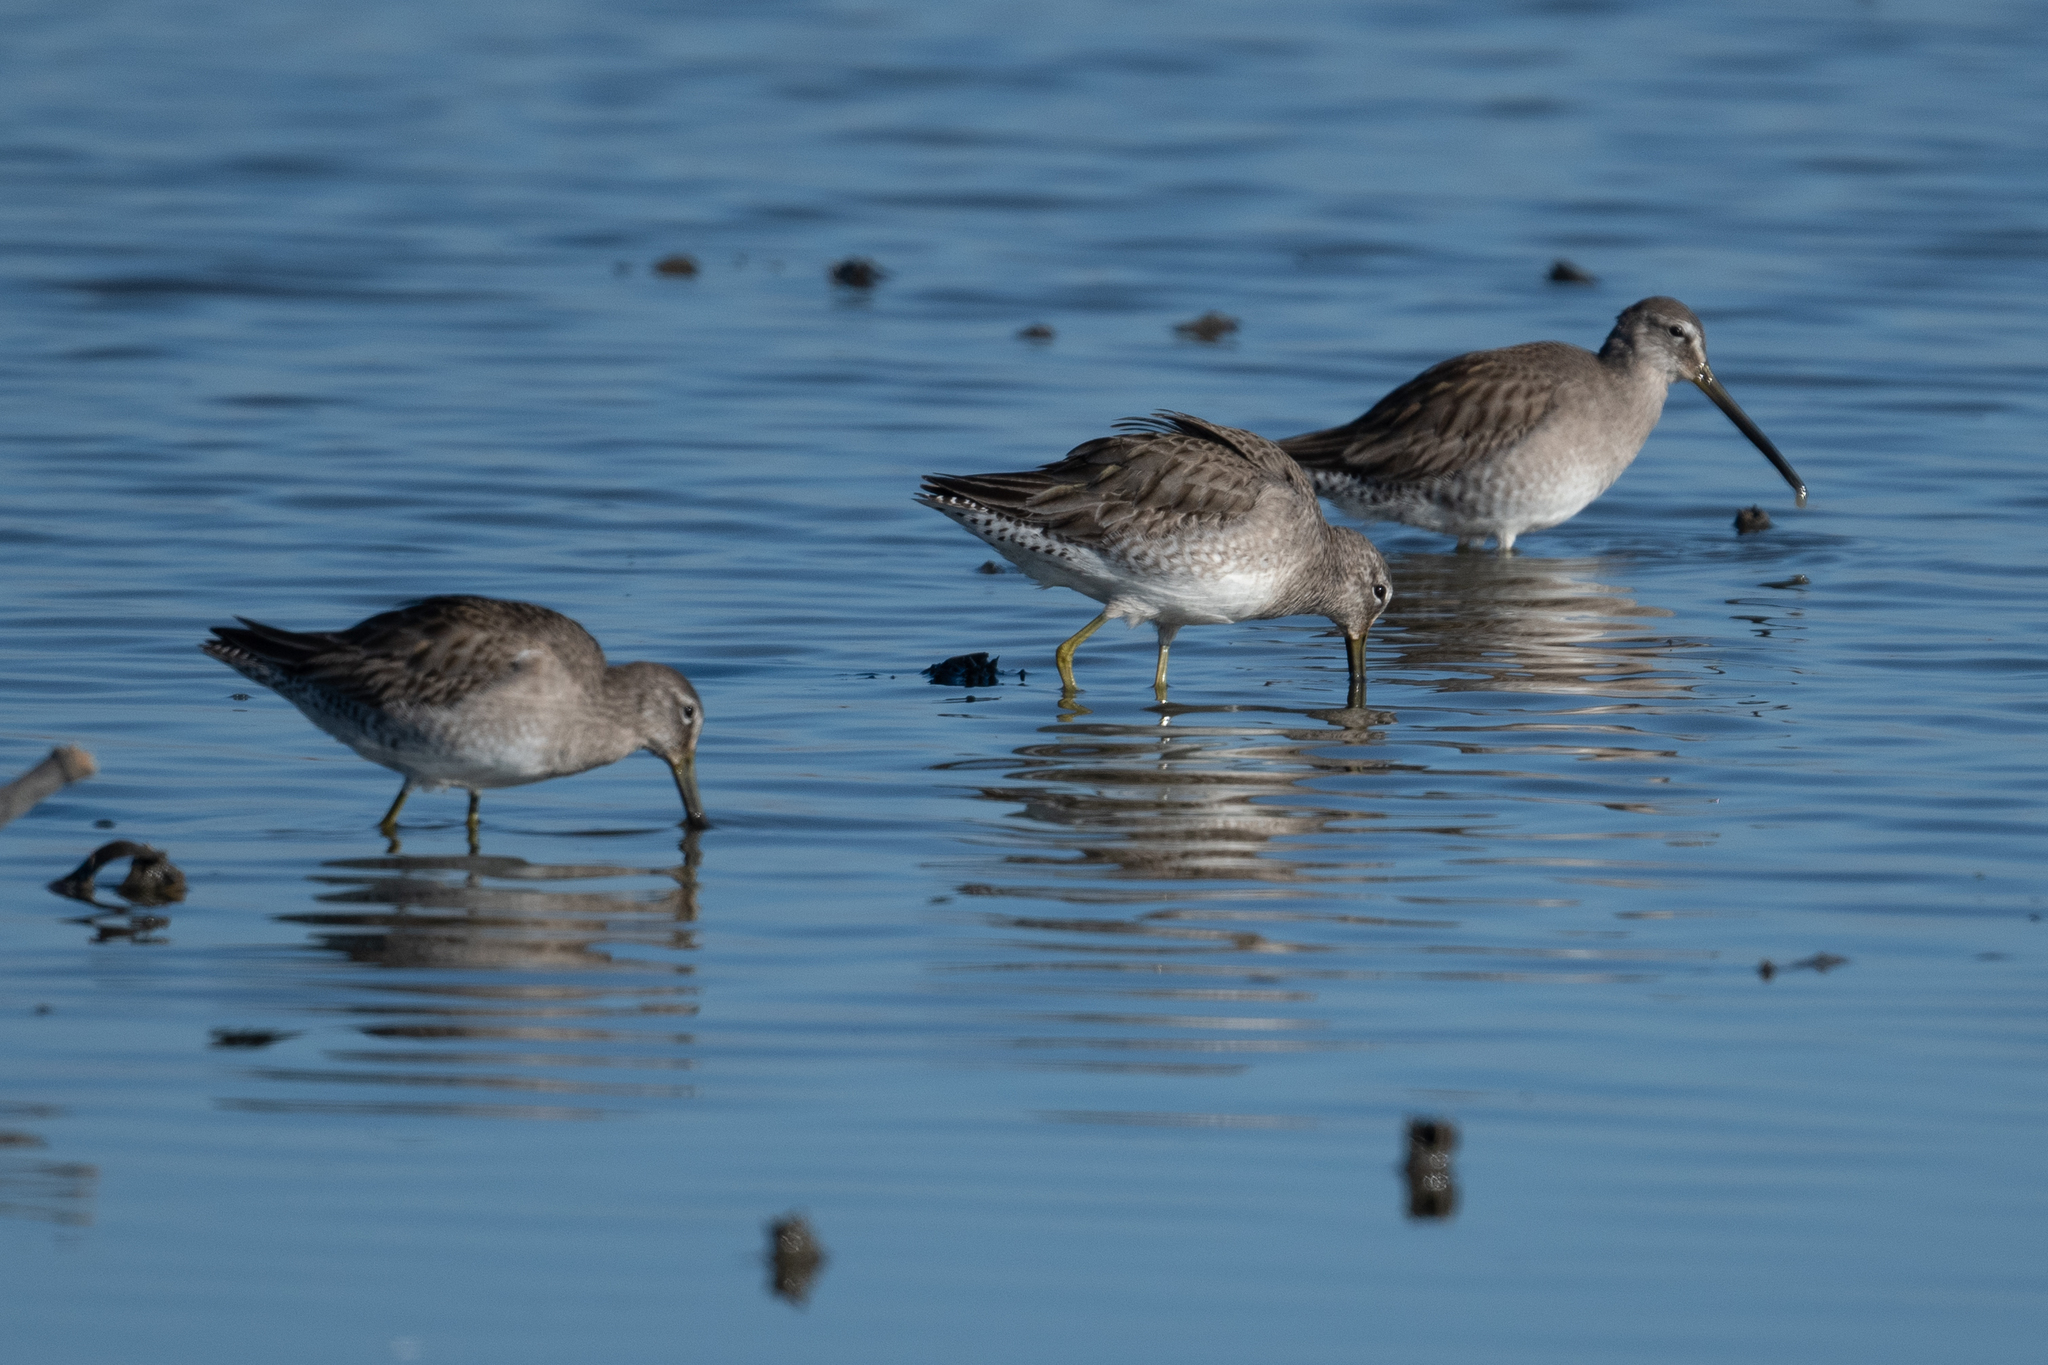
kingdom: Animalia
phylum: Chordata
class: Aves
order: Charadriiformes
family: Scolopacidae
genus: Limnodromus
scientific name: Limnodromus scolopaceus
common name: Long-billed dowitcher
